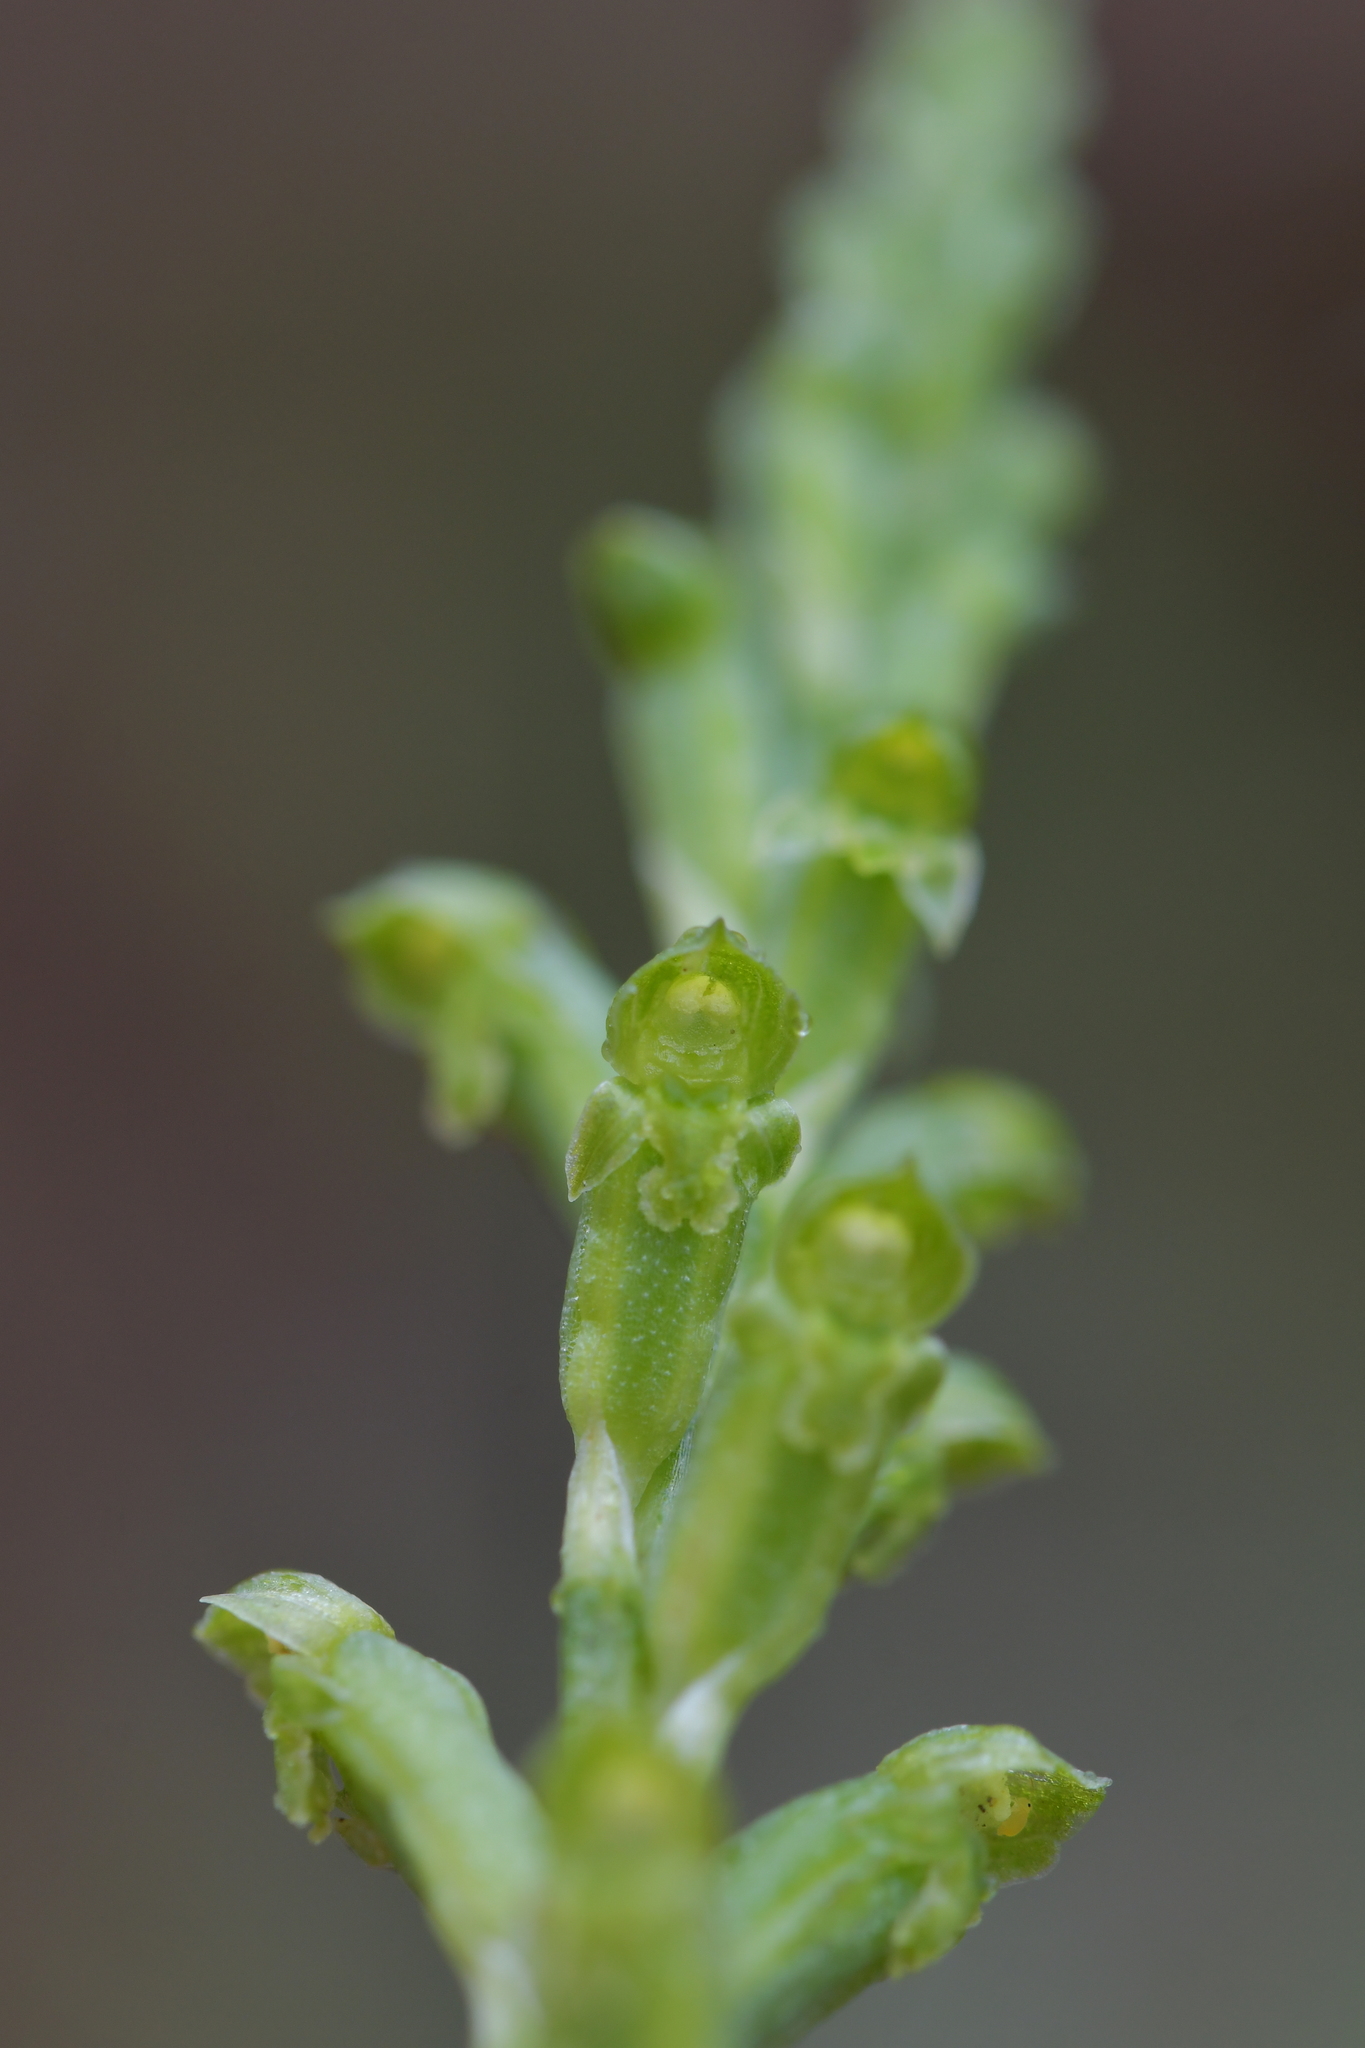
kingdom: Plantae
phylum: Tracheophyta
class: Liliopsida
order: Asparagales
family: Orchidaceae
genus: Microtis
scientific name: Microtis unifolia
